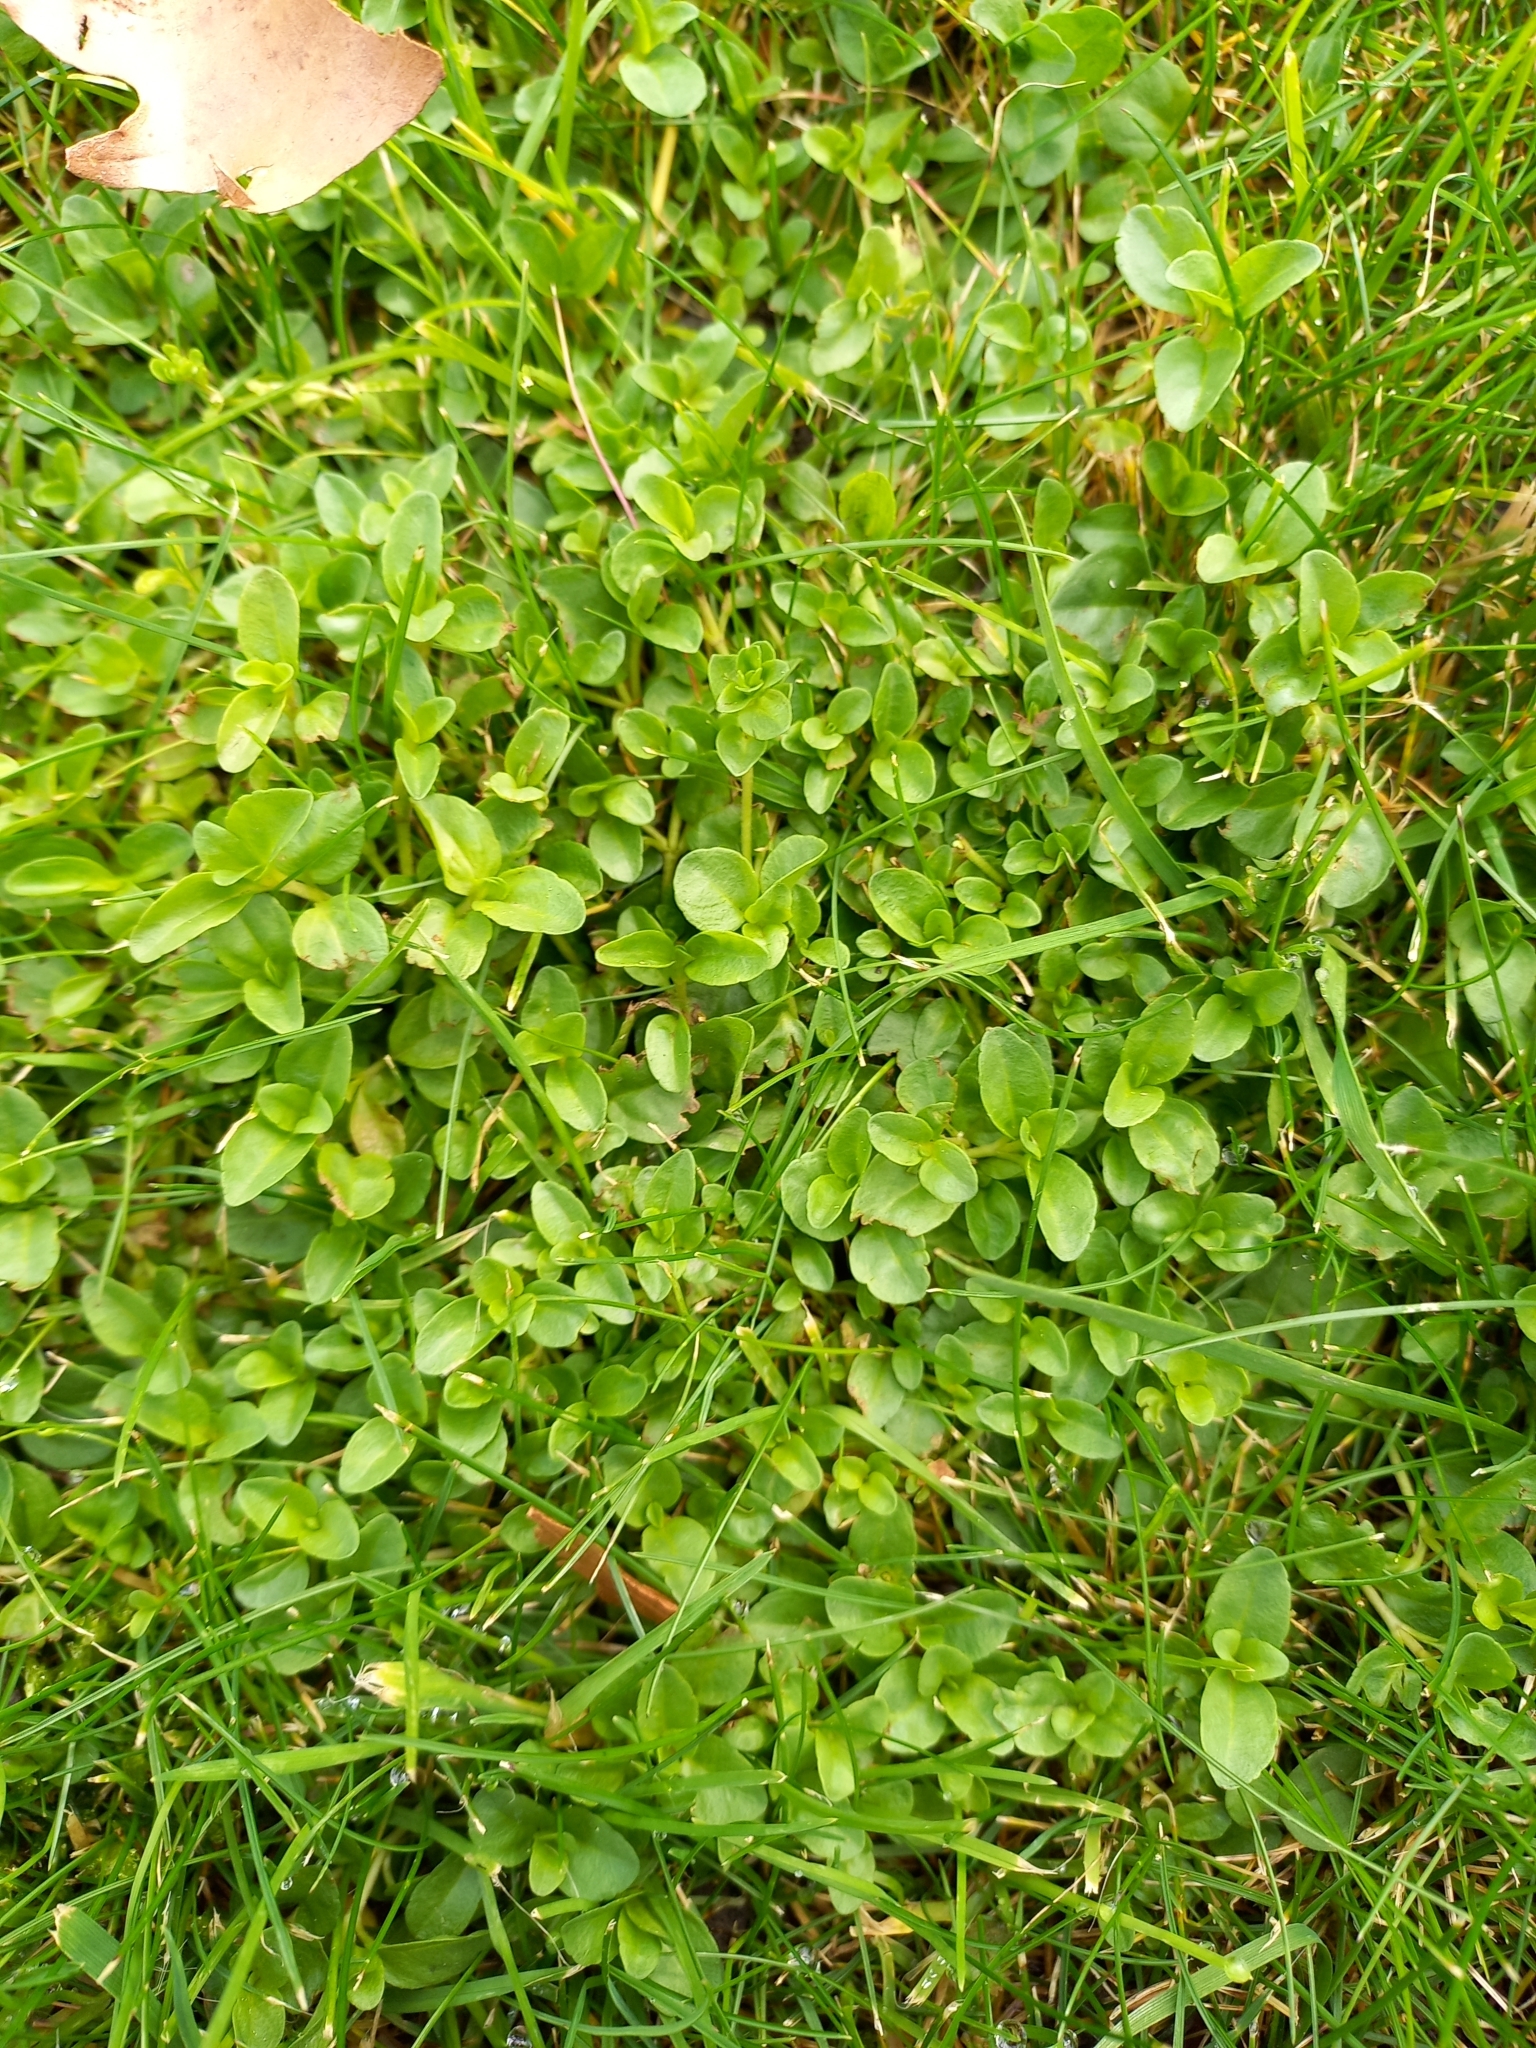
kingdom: Plantae
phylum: Tracheophyta
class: Magnoliopsida
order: Ericales
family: Primulaceae
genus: Lysimachia
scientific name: Lysimachia arvensis
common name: Scarlet pimpernel
